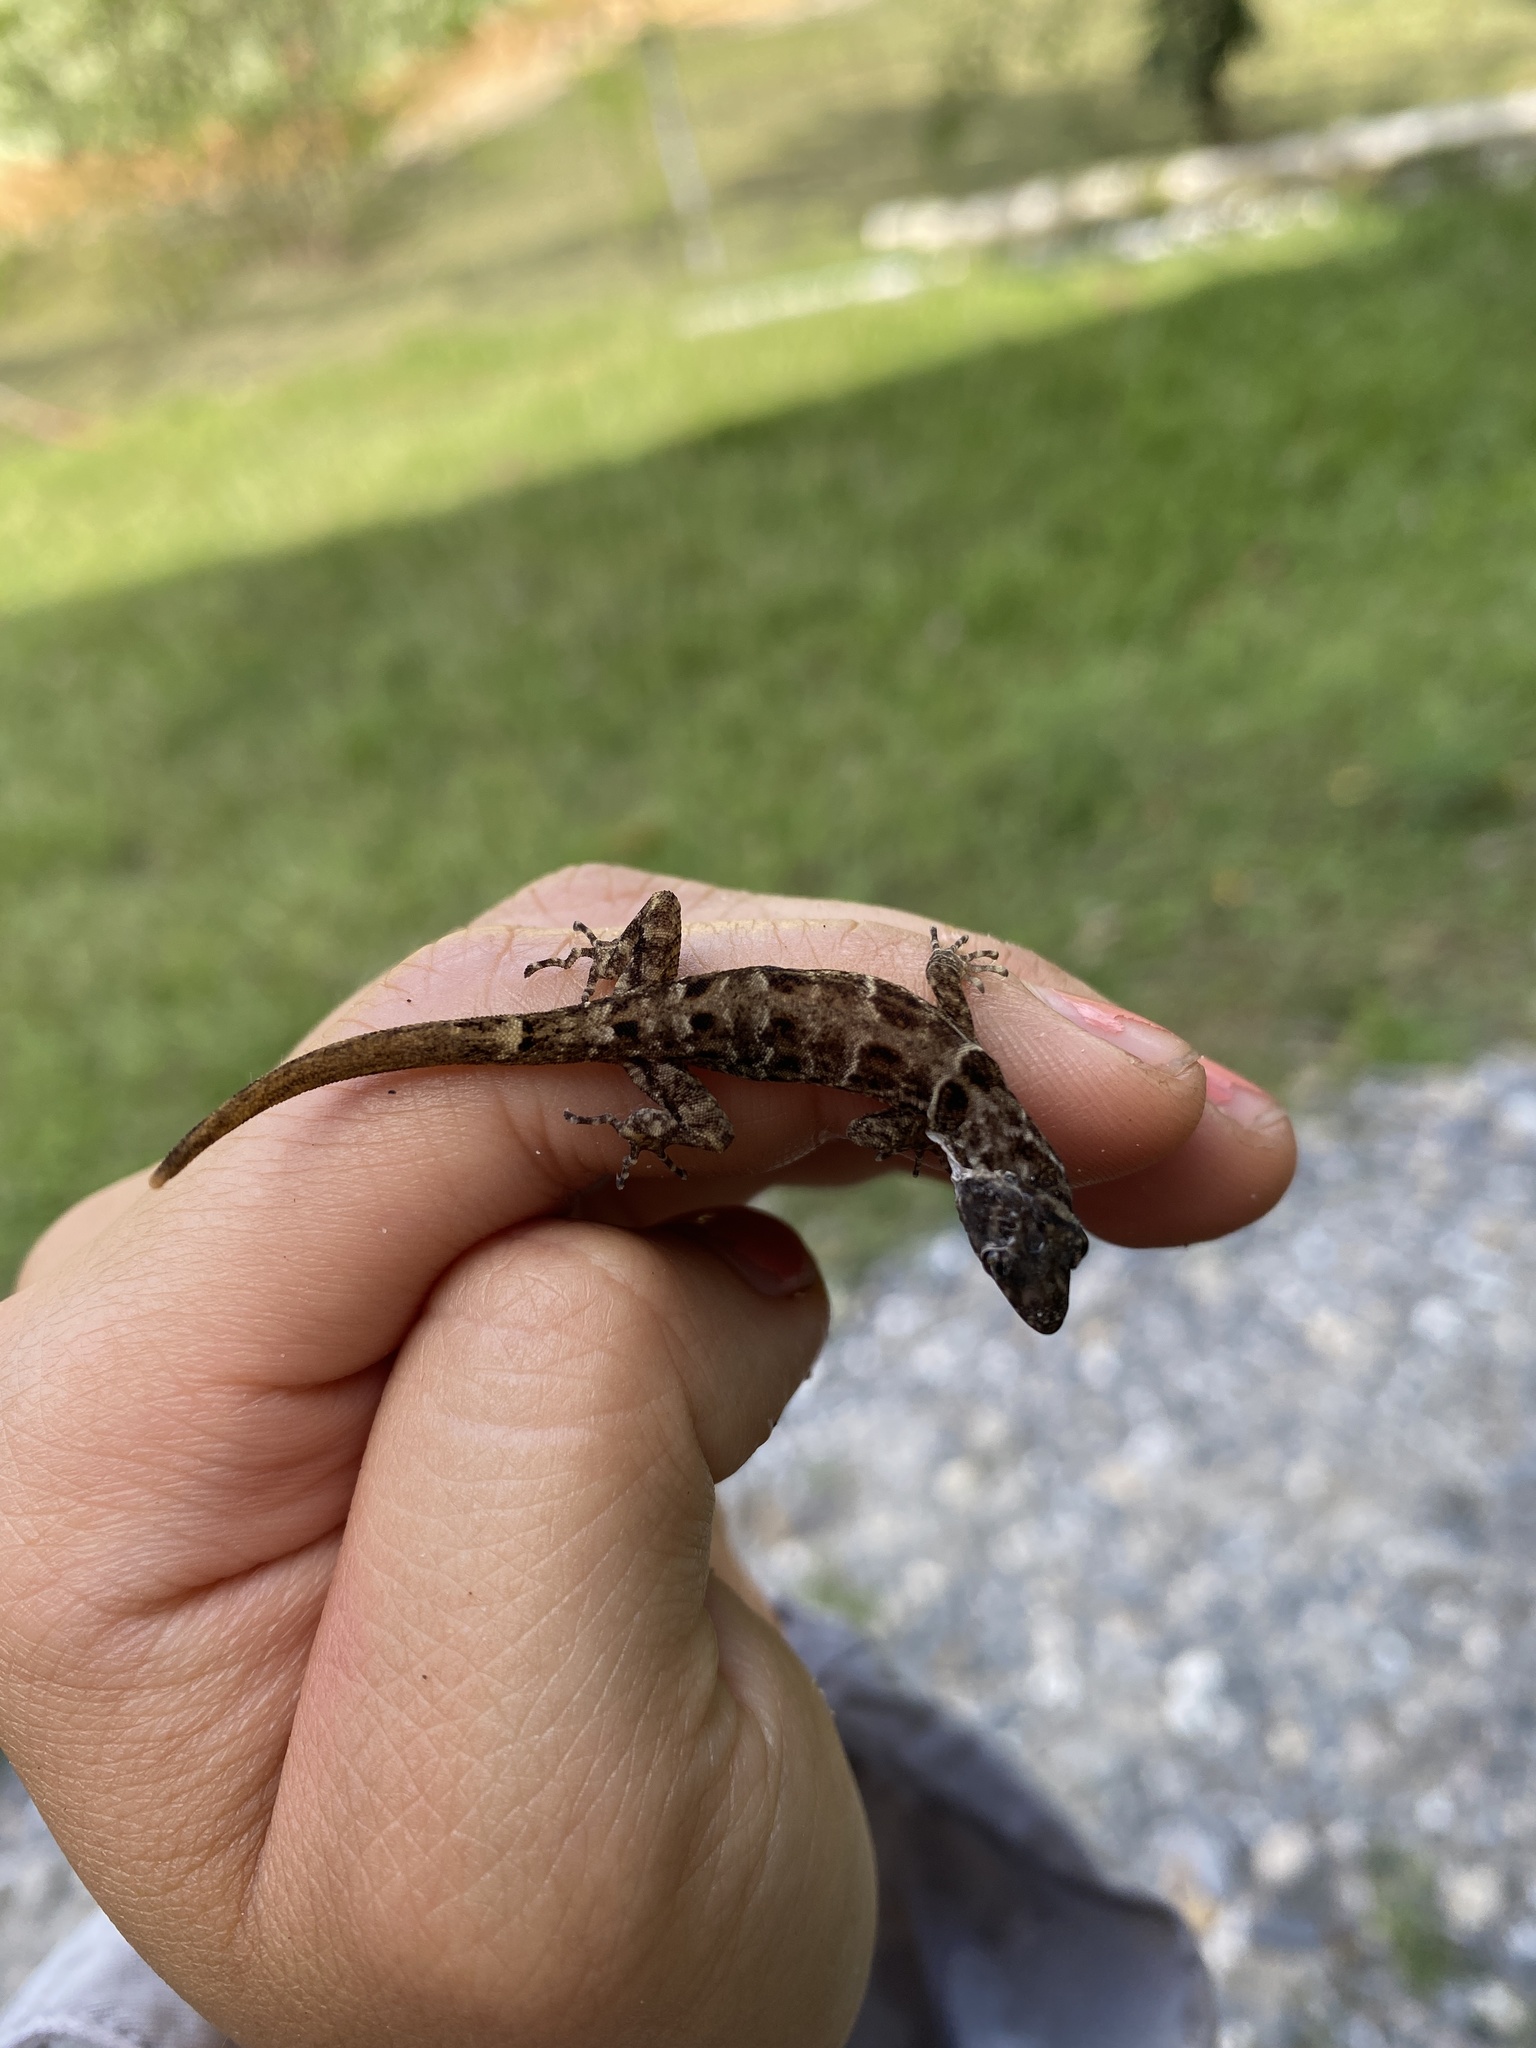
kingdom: Animalia
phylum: Chordata
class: Squamata
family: Sphaerodactylidae
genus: Gonatodes
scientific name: Gonatodes humeralis
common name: South american clawed gecko
